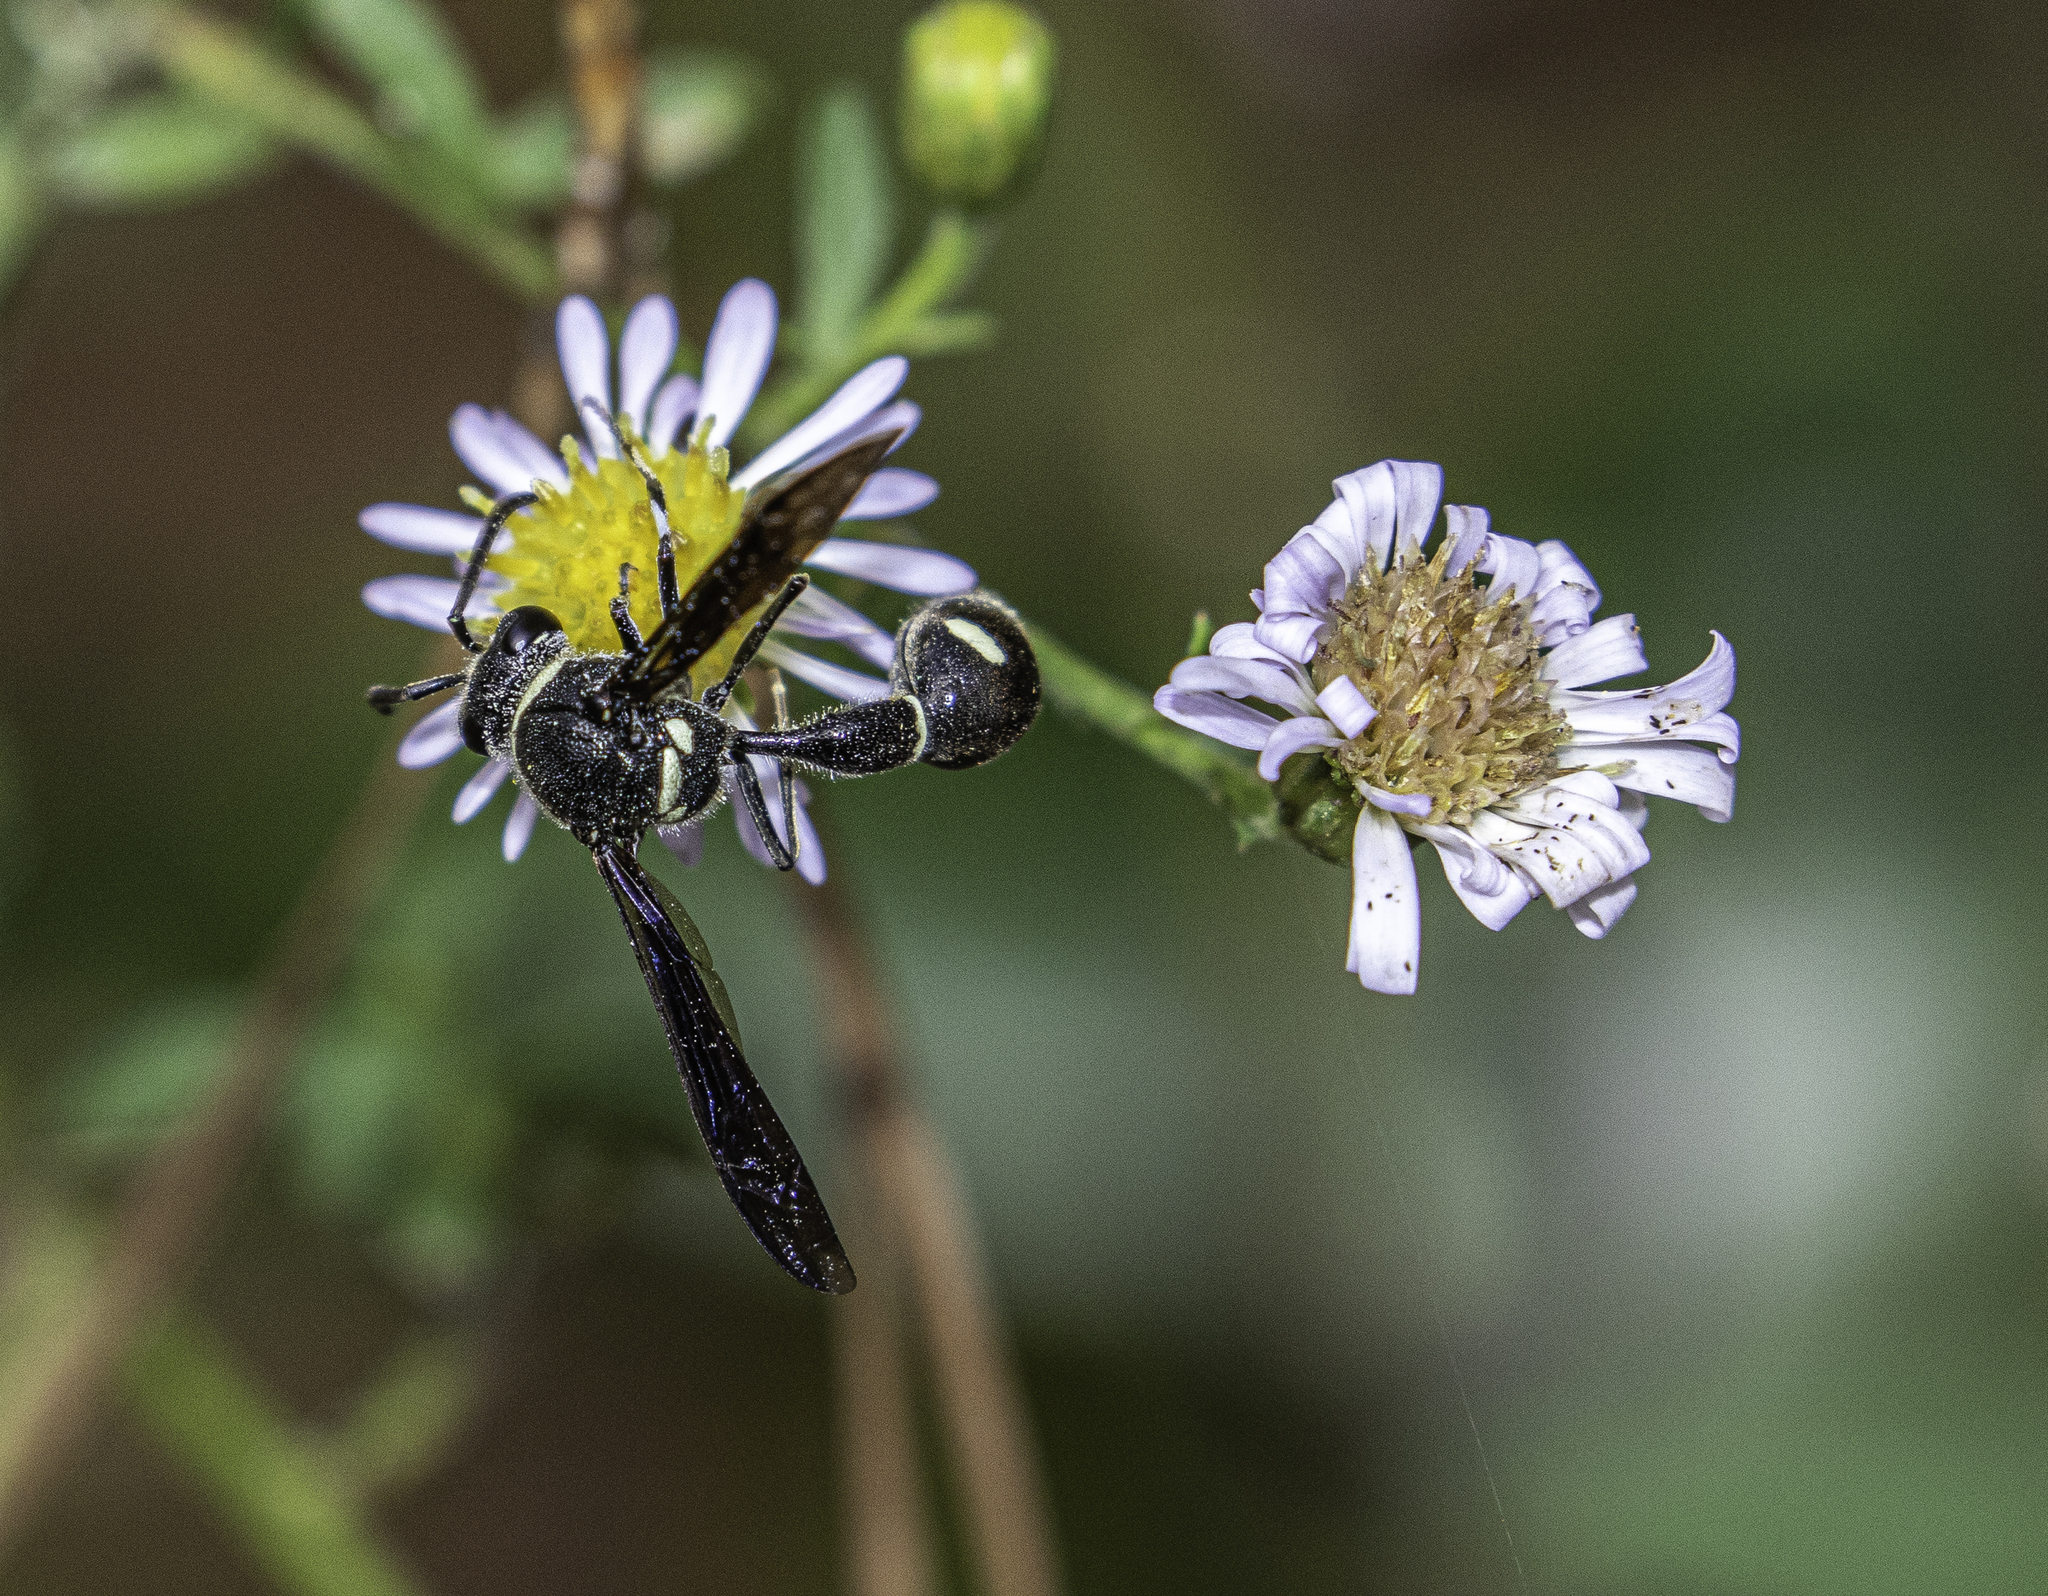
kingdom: Animalia
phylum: Arthropoda
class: Insecta
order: Hymenoptera
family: Vespidae
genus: Eumenes
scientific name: Eumenes fraternus
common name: Fraternal potter wasp
